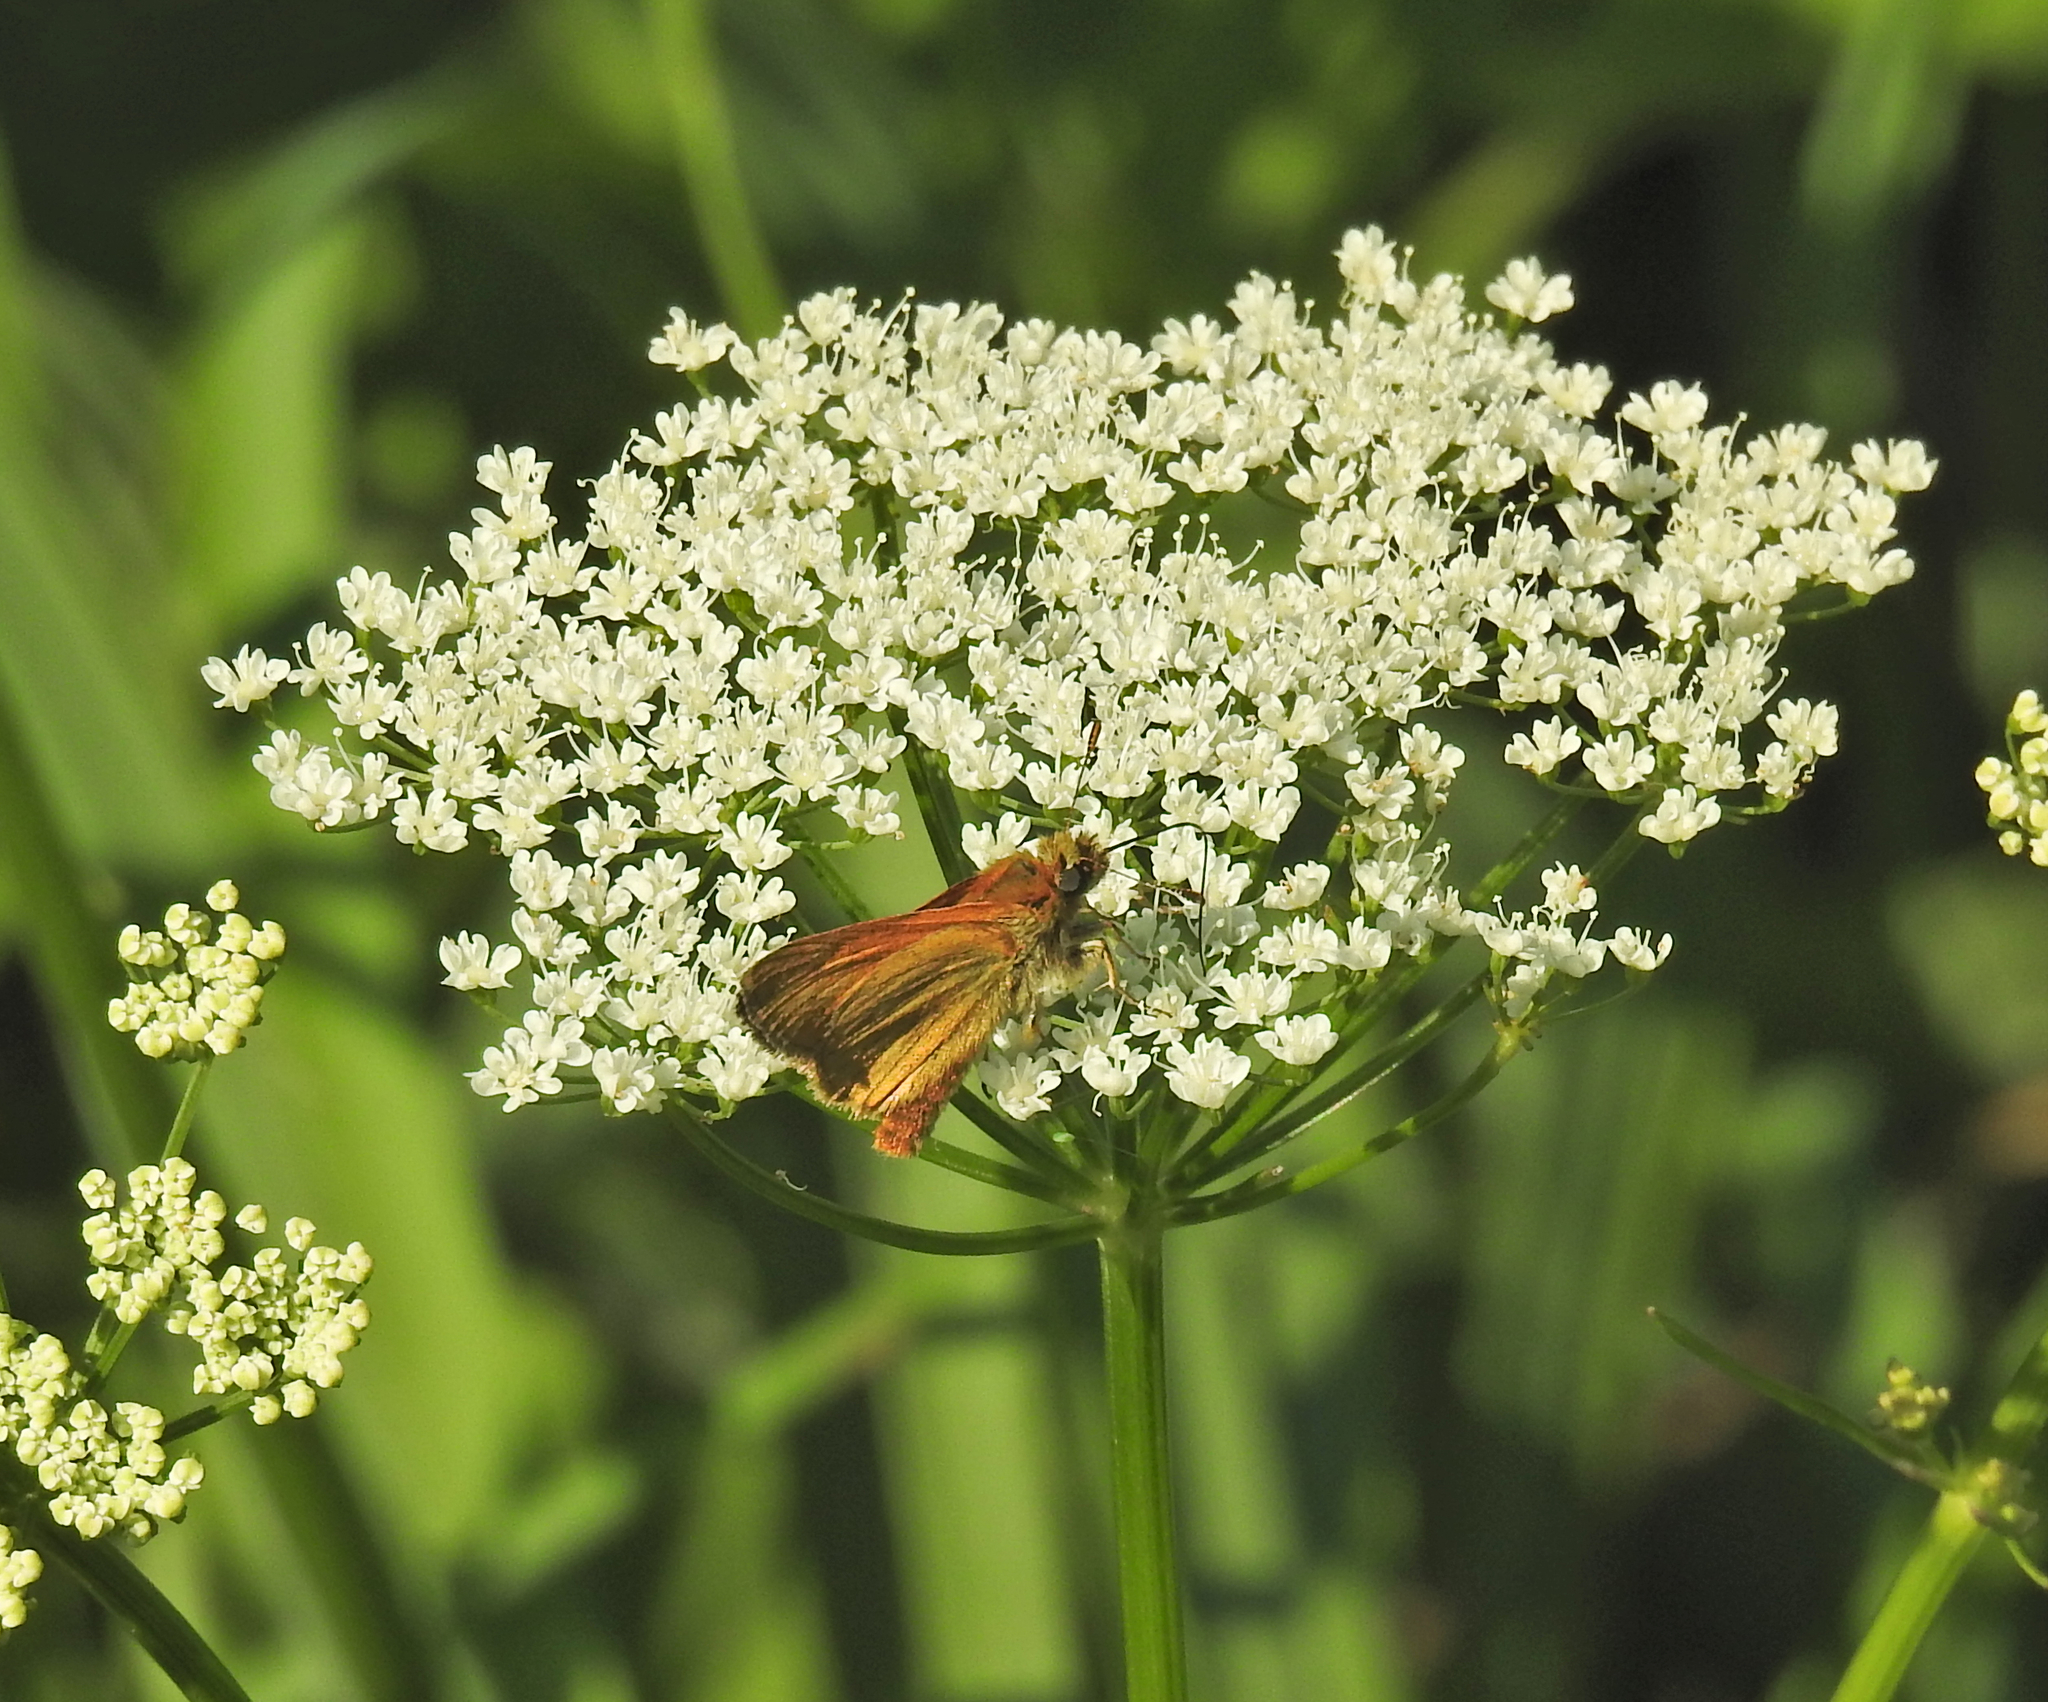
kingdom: Animalia
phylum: Arthropoda
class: Insecta
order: Lepidoptera
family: Hesperiidae
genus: Ochlodes
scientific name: Ochlodes venata
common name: Large skipper
